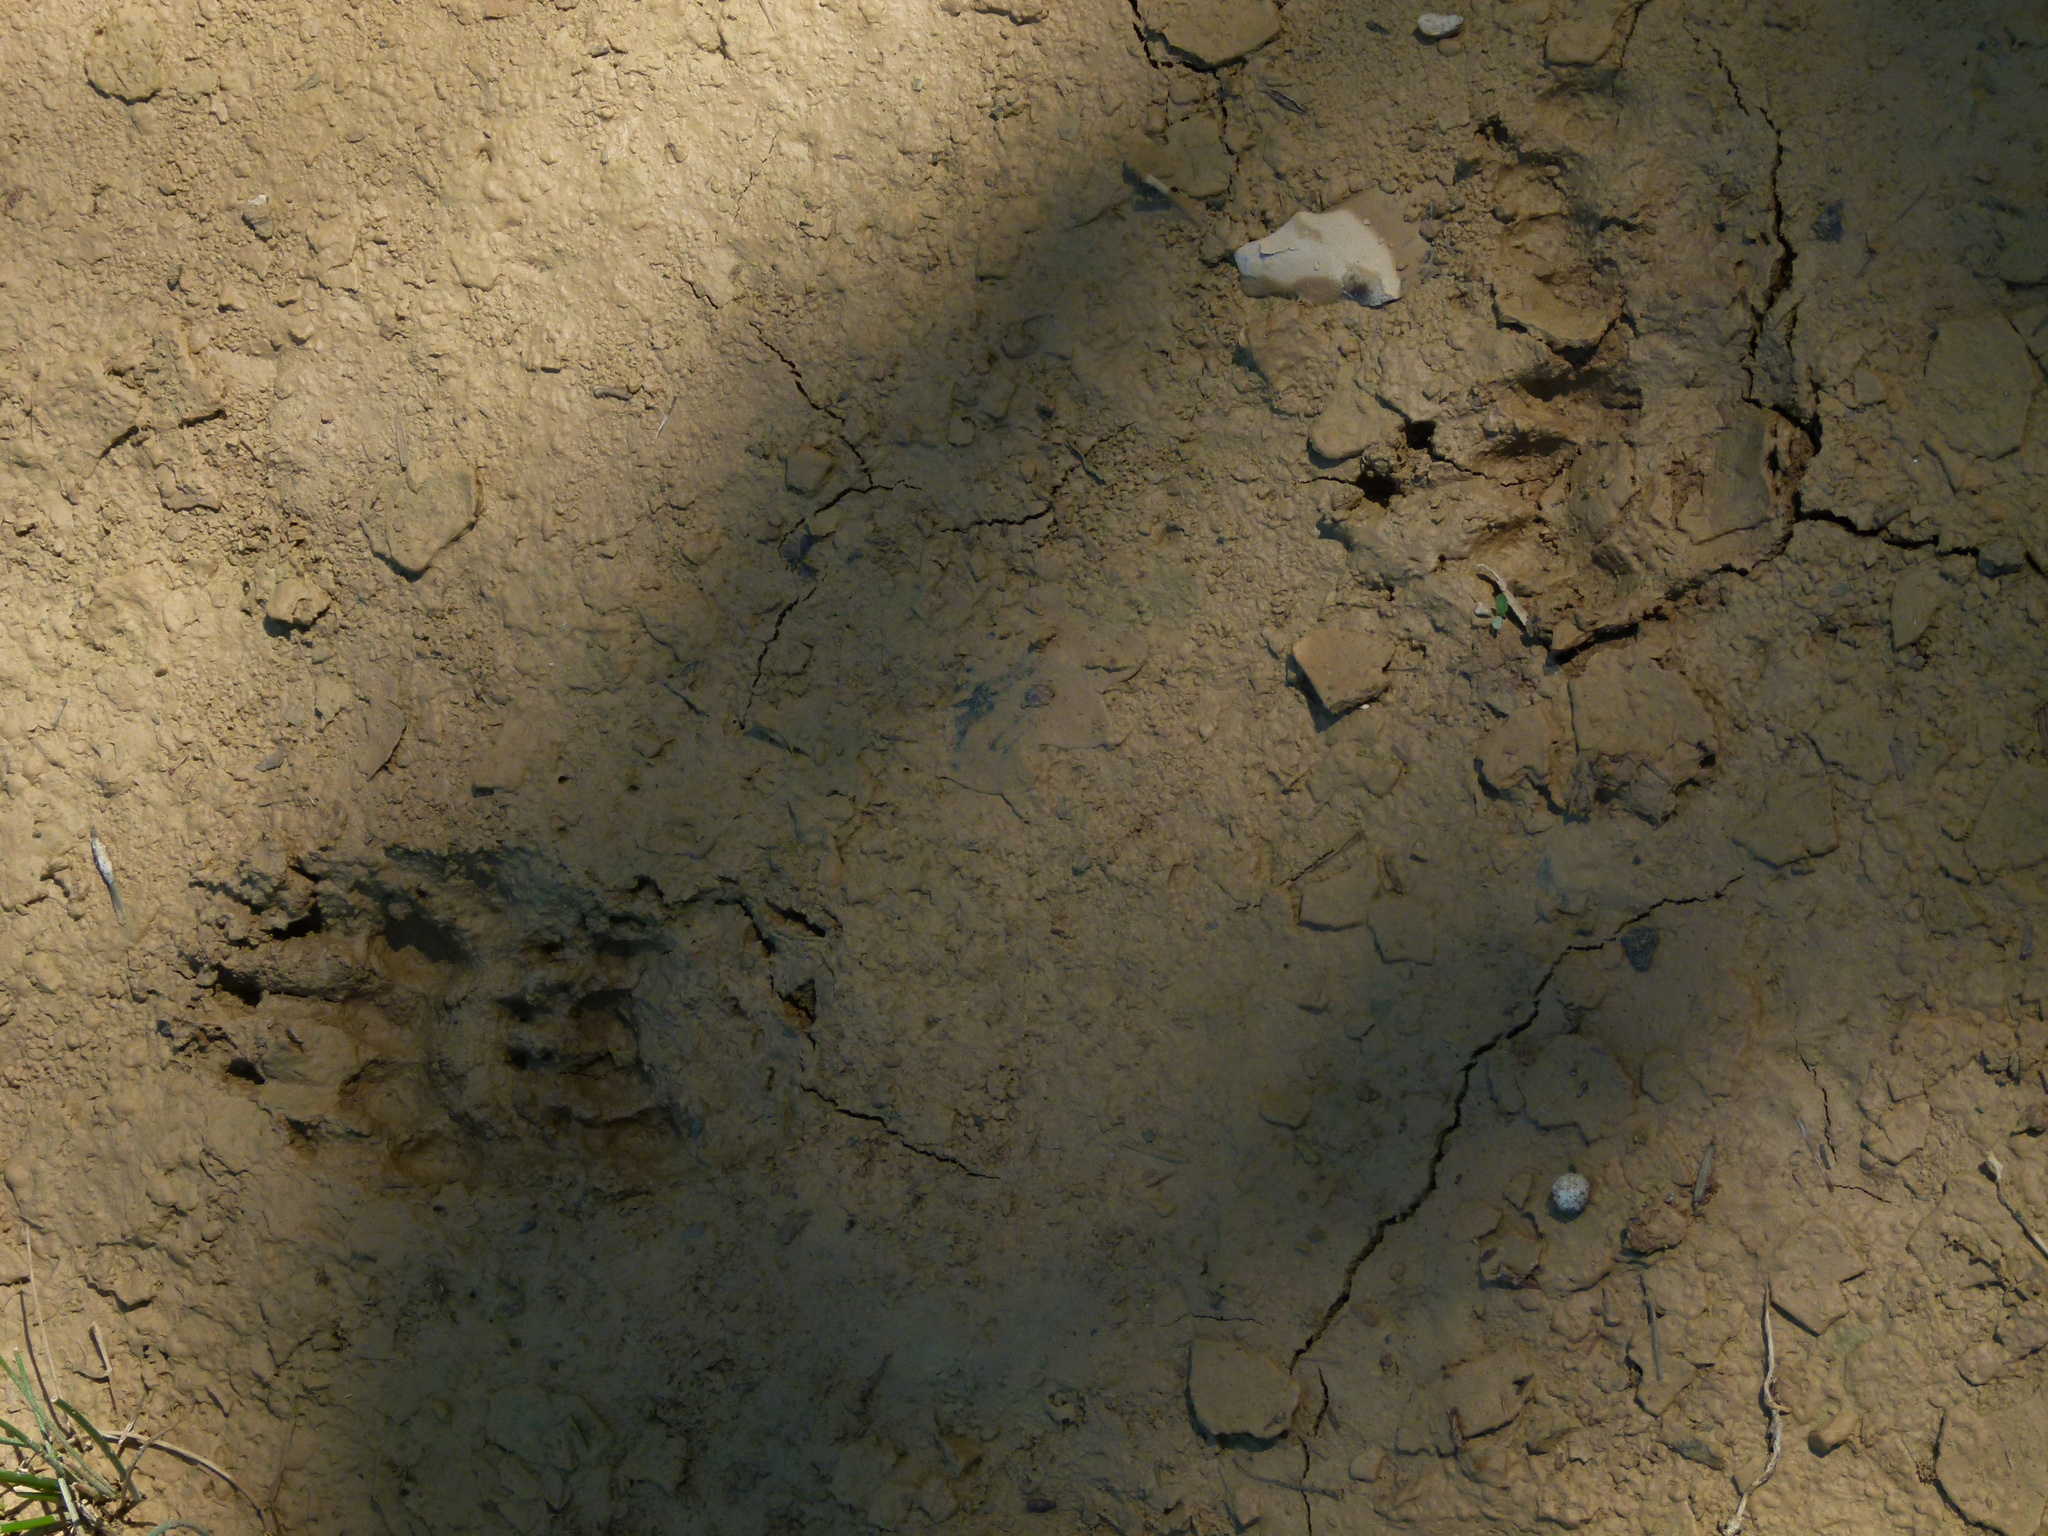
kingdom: Animalia
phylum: Chordata
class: Mammalia
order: Carnivora
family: Mustelidae
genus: Meles
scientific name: Meles meles
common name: Eurasian badger
